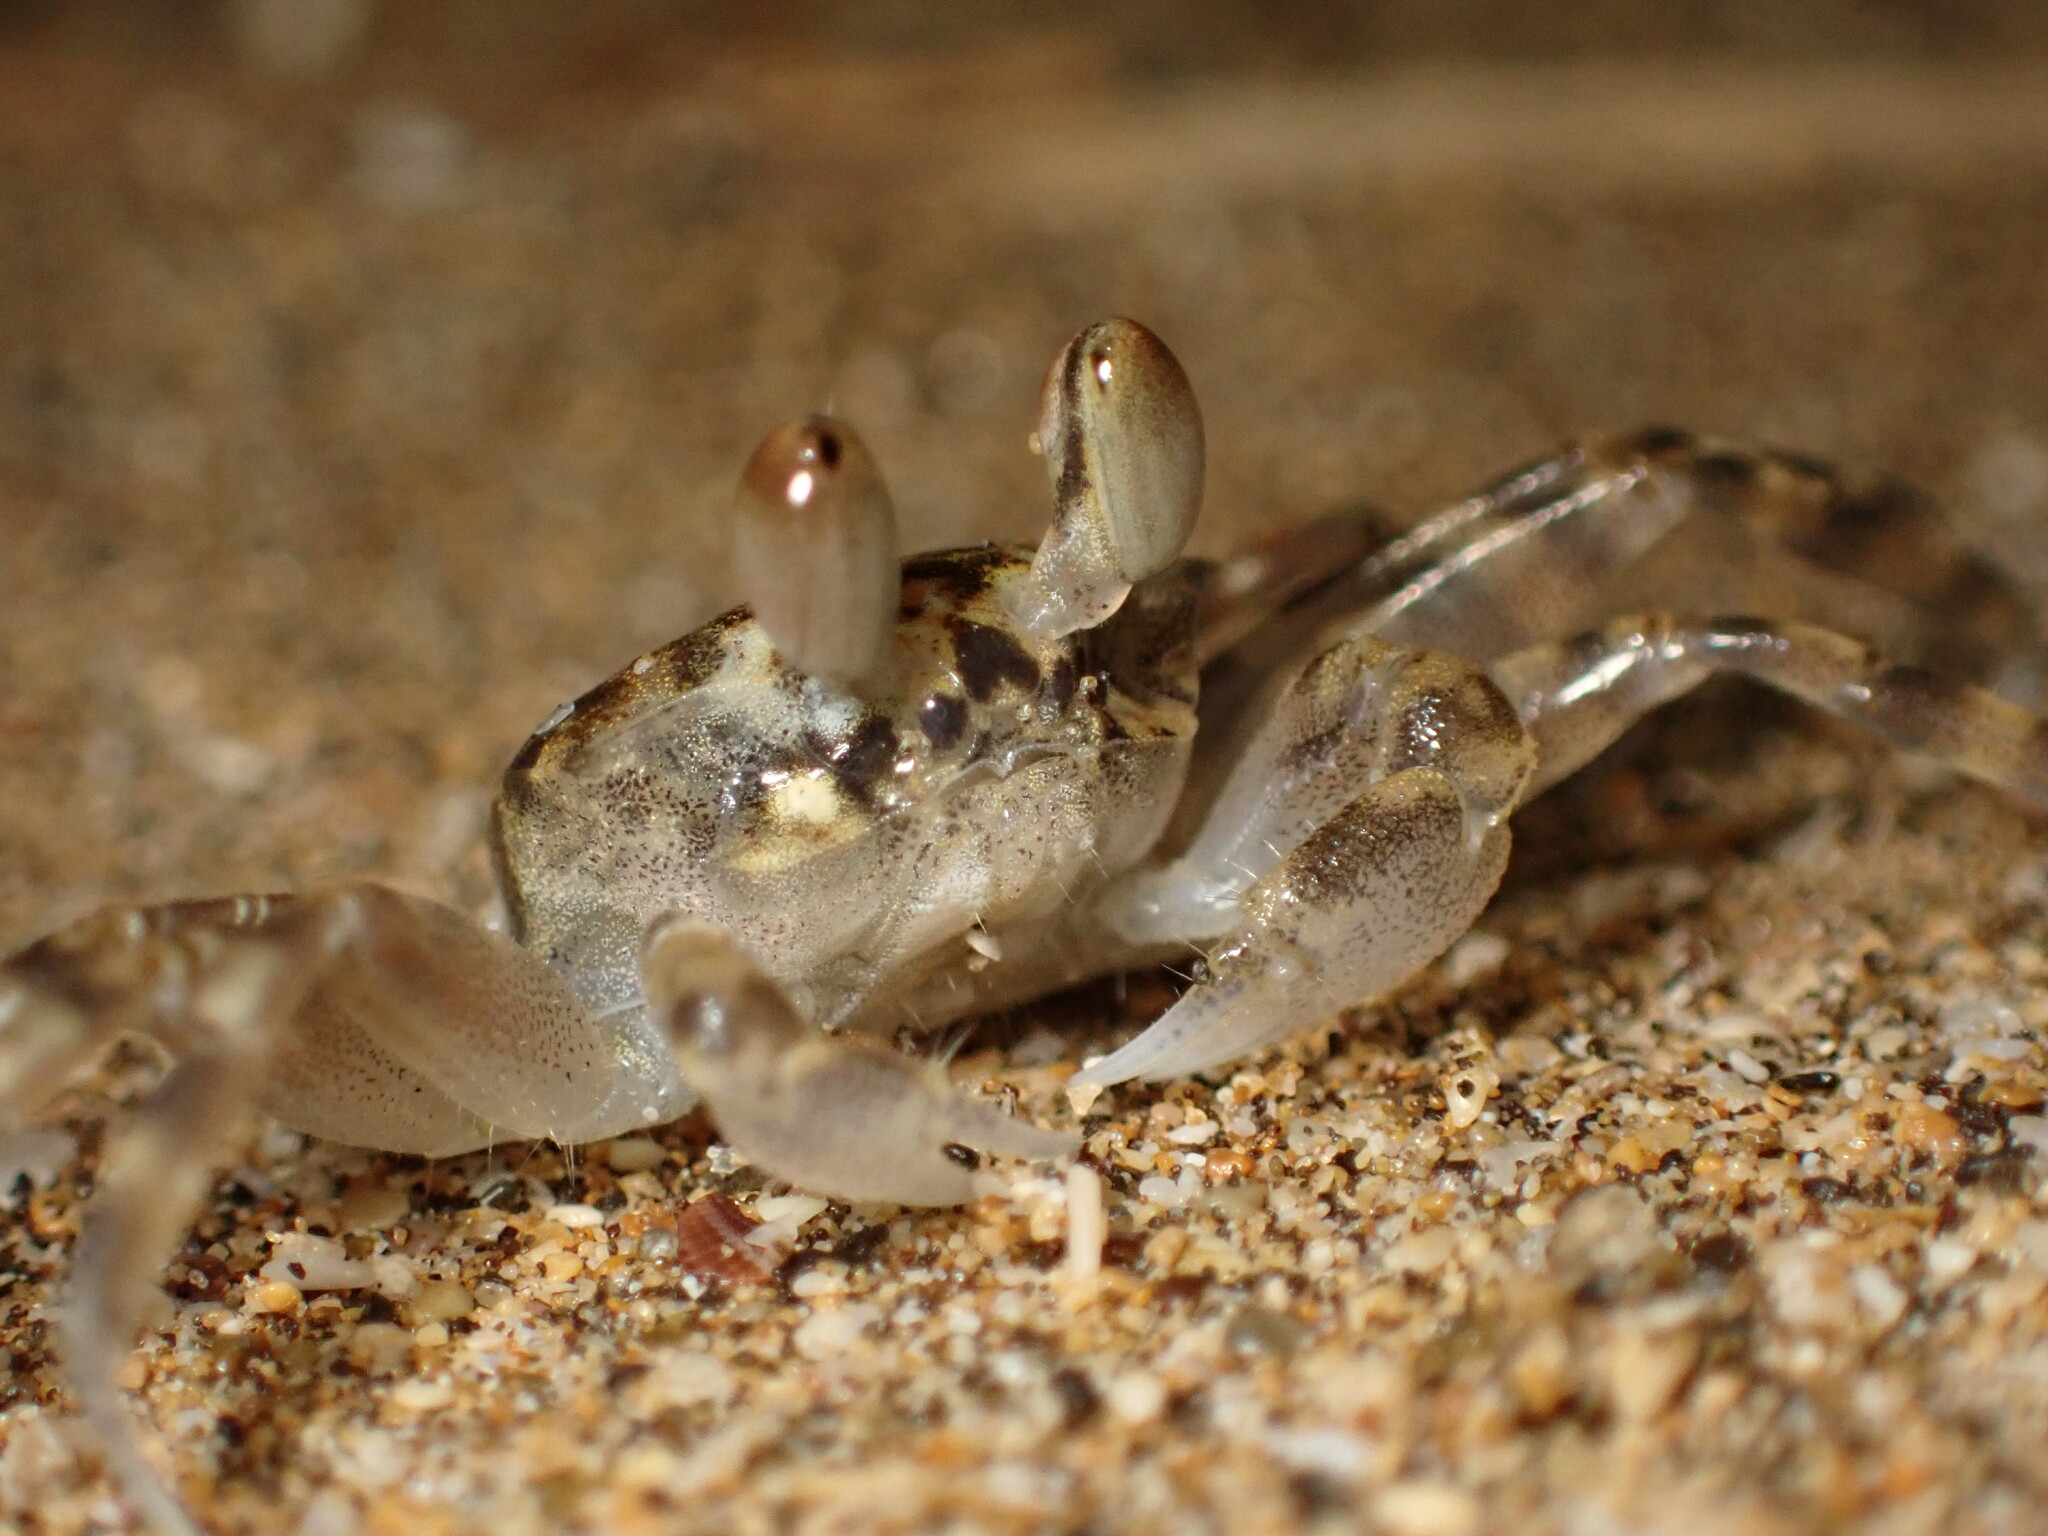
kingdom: Animalia
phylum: Arthropoda
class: Malacostraca
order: Decapoda
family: Ocypodidae
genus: Ocypode
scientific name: Ocypode pallidula
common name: Pallid ghost crab
